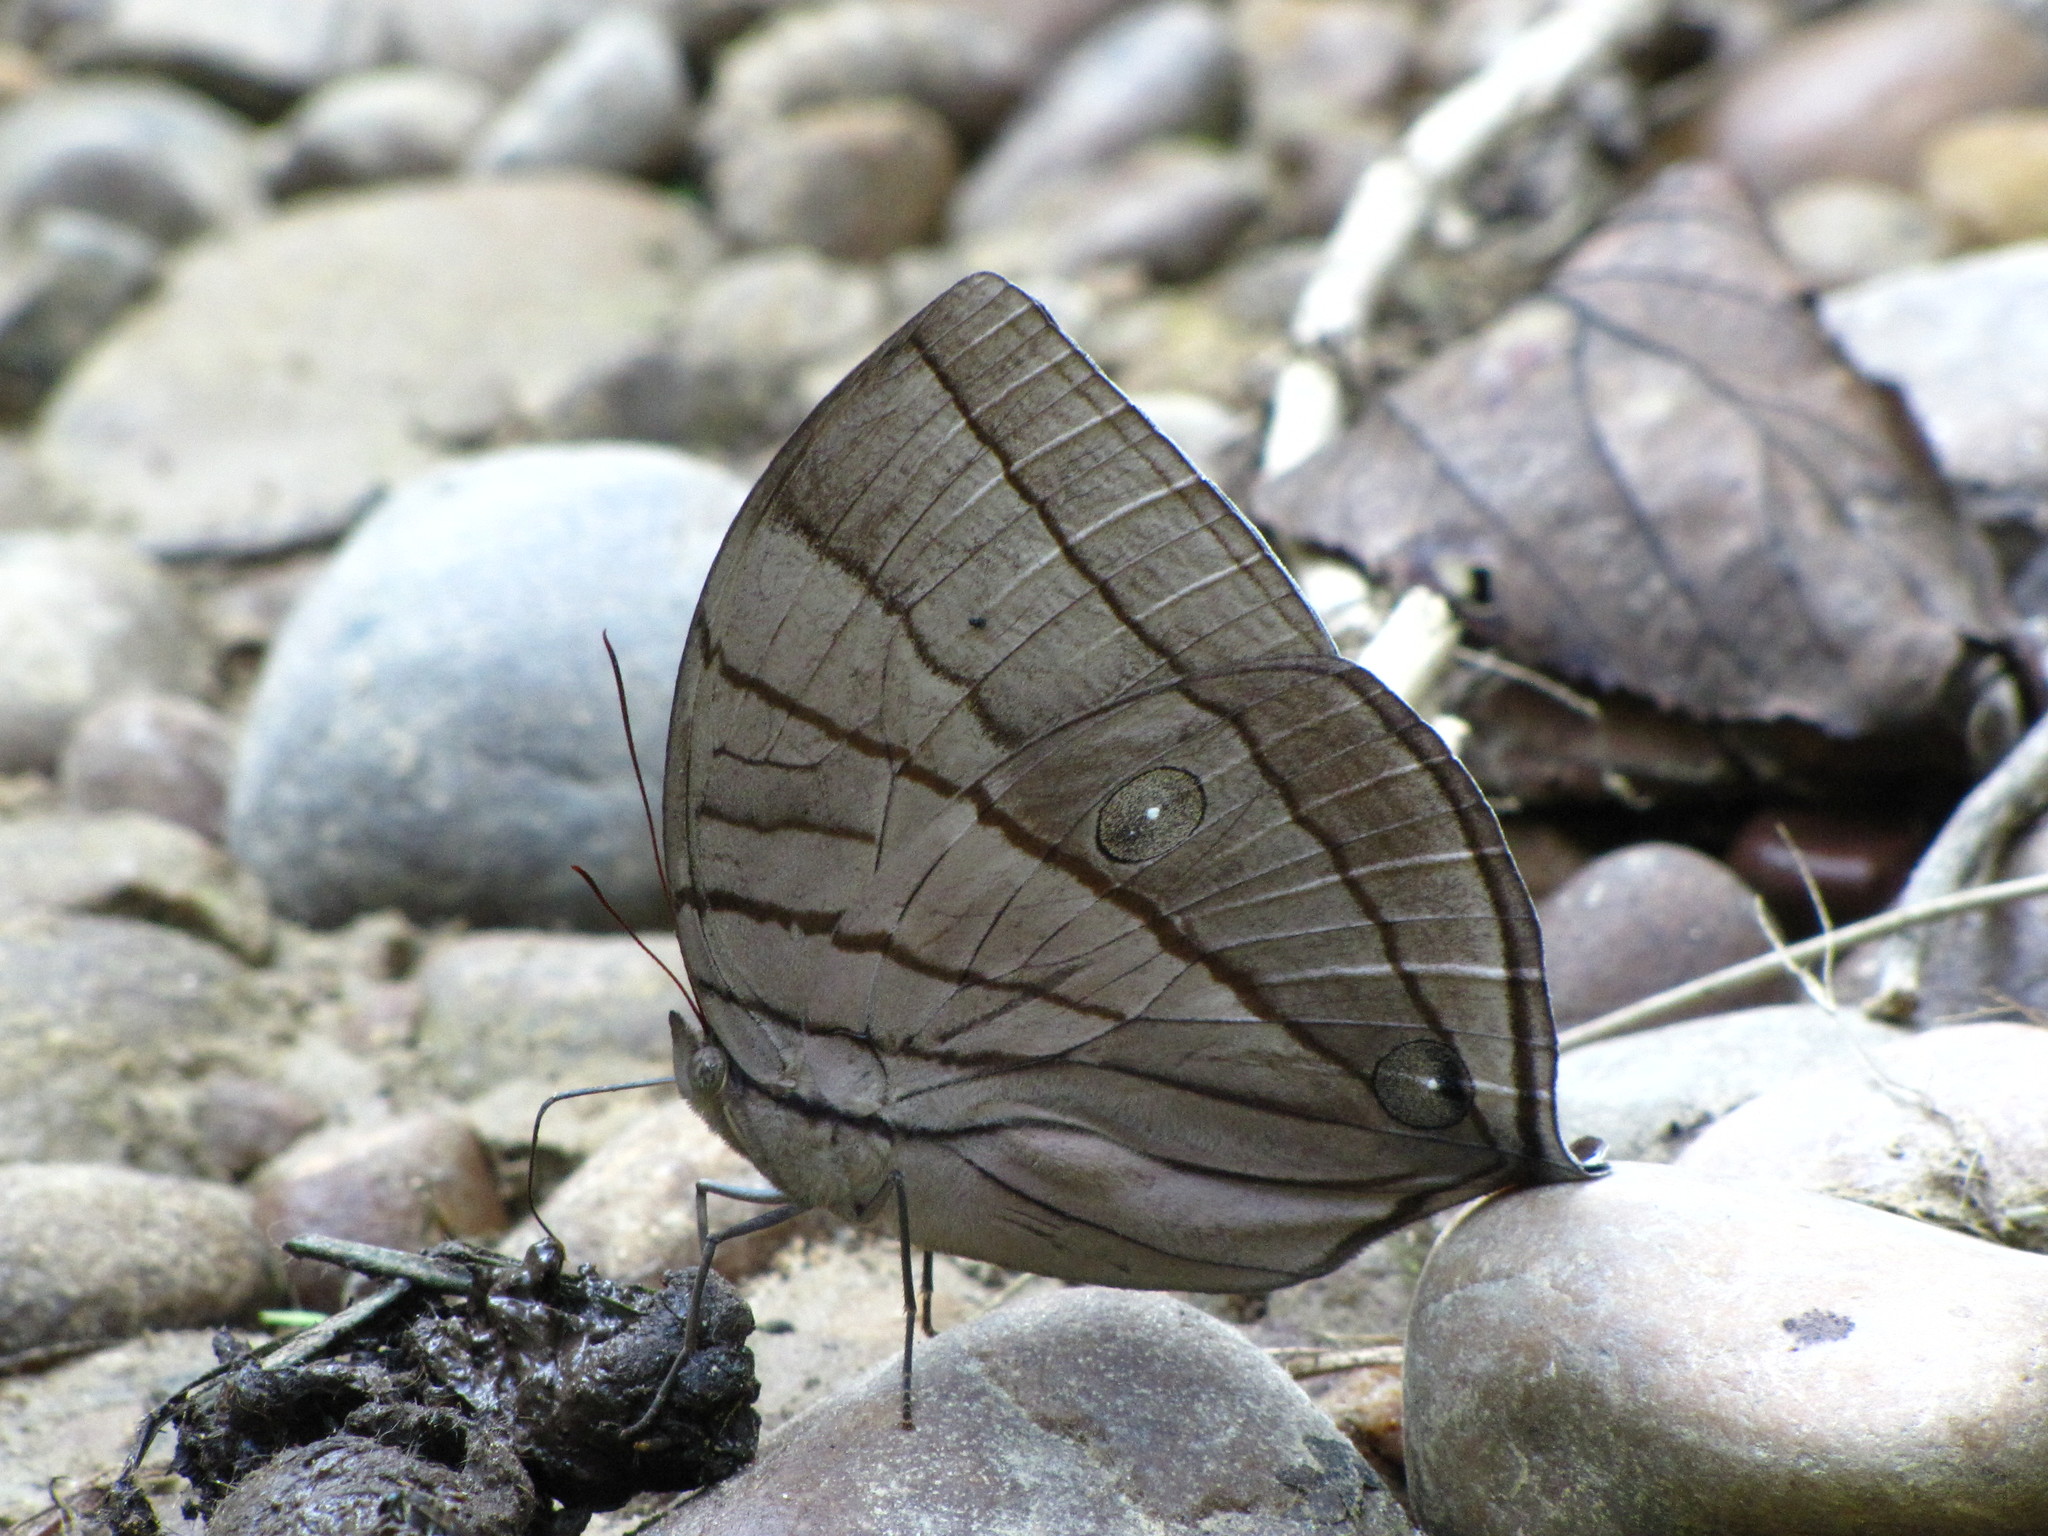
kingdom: Animalia
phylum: Arthropoda
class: Insecta
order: Lepidoptera
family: Nymphalidae
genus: Amathuxidia
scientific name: Amathuxidia amythaon
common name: Koh-i-noor
